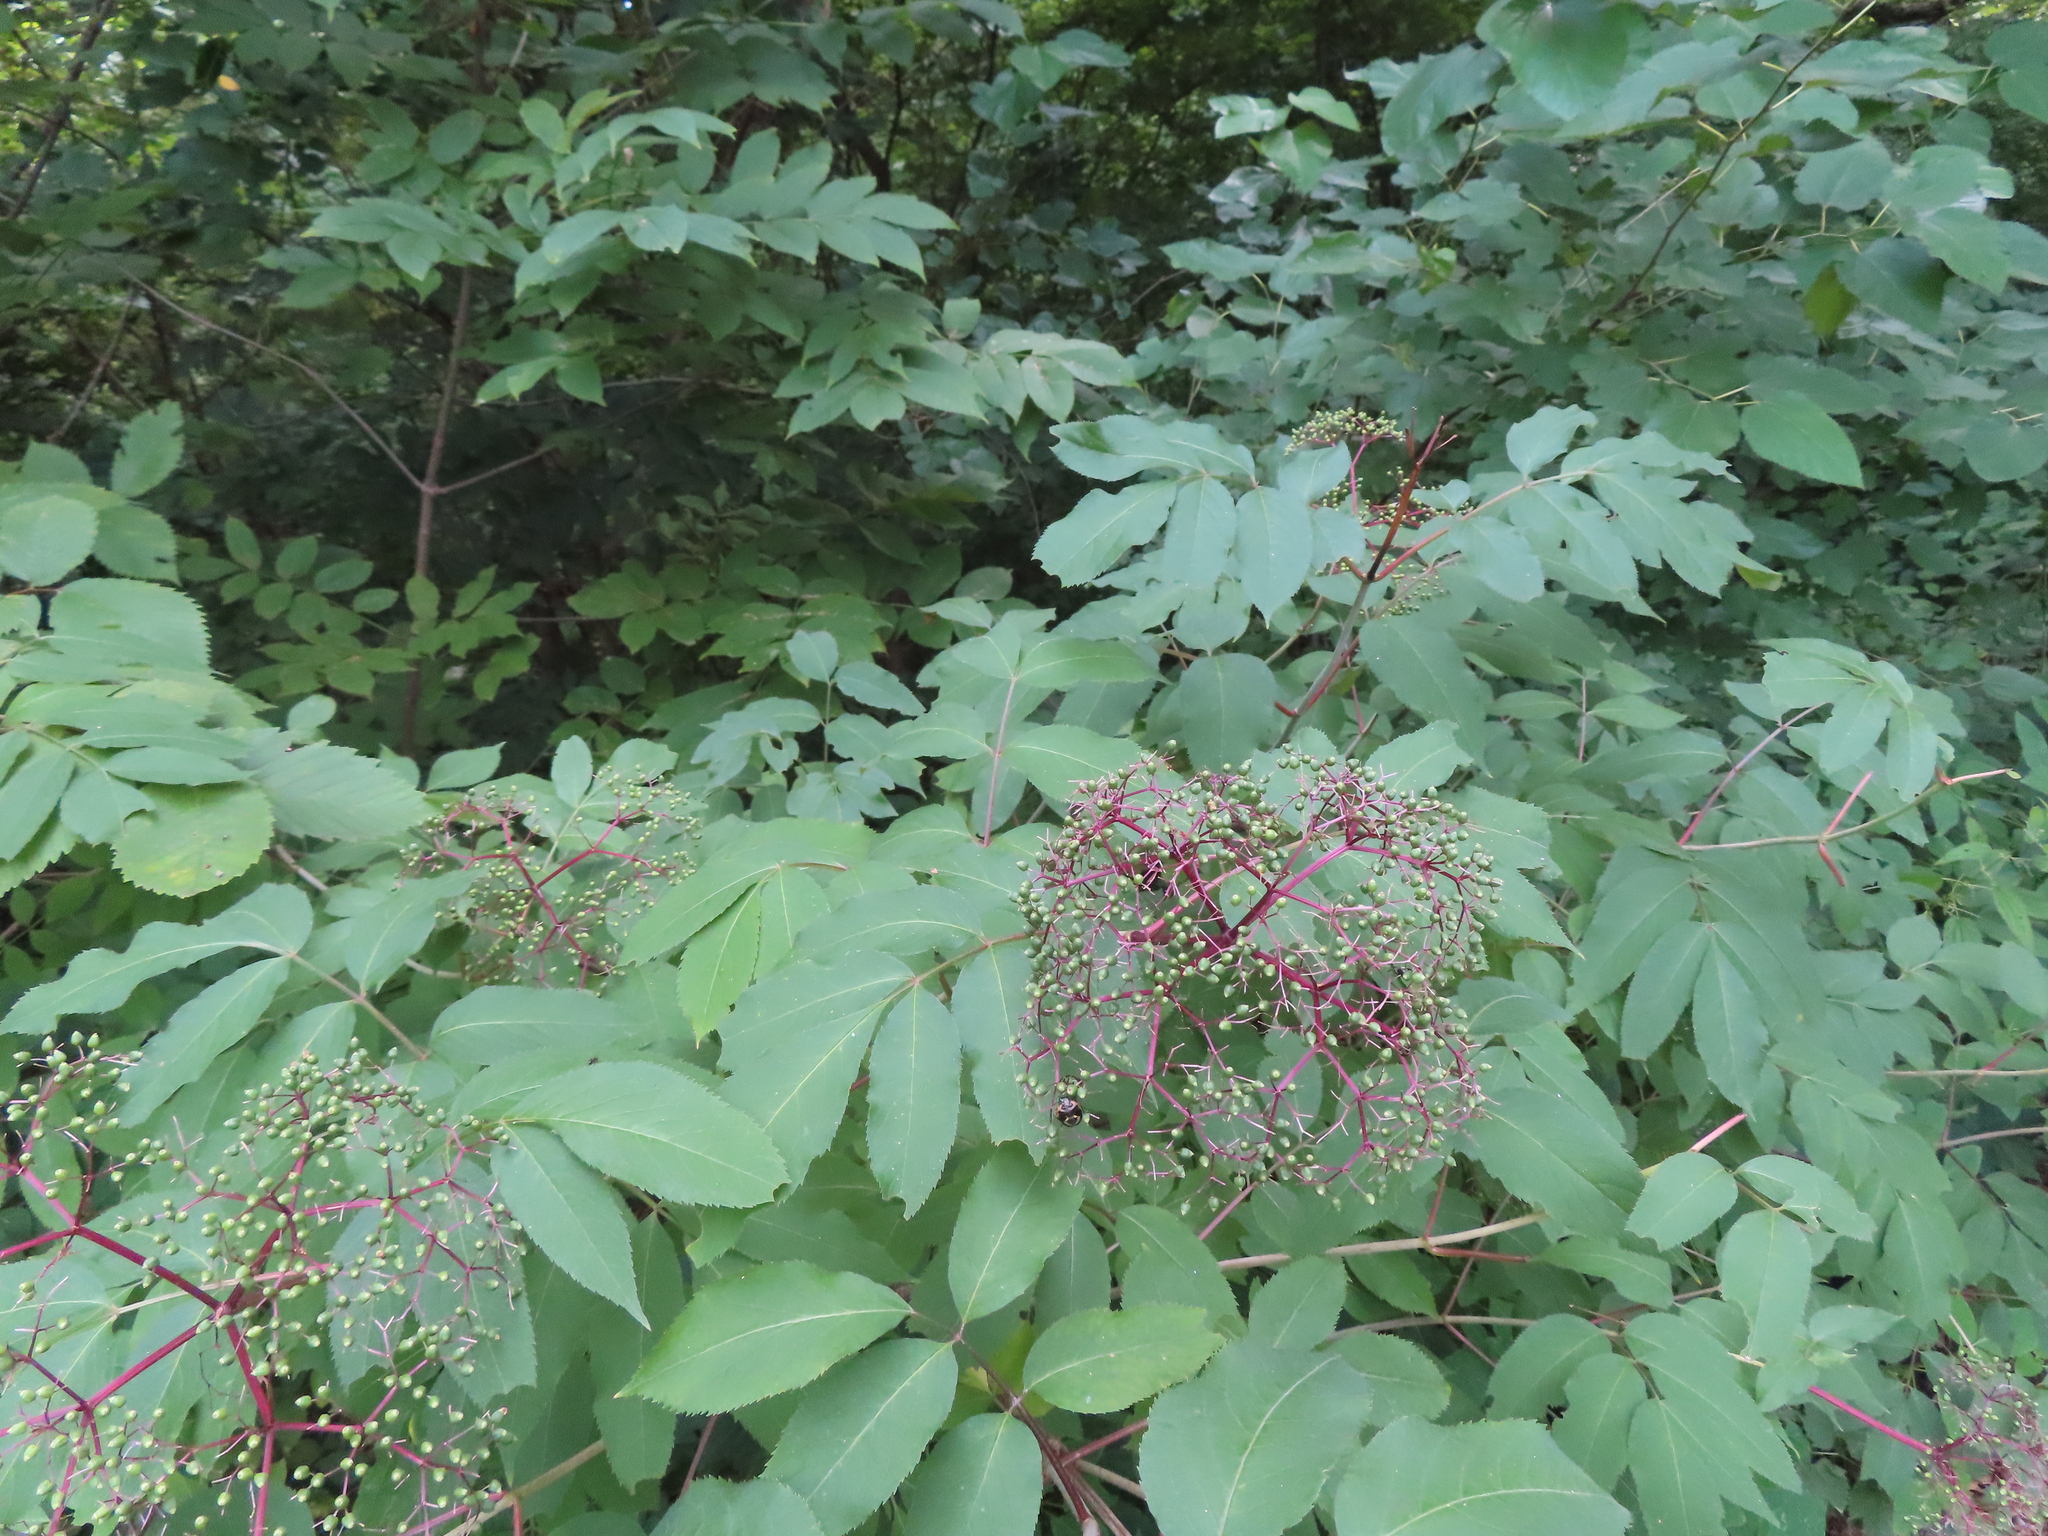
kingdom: Plantae
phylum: Tracheophyta
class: Magnoliopsida
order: Dipsacales
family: Viburnaceae
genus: Sambucus
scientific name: Sambucus canadensis
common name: American elder
